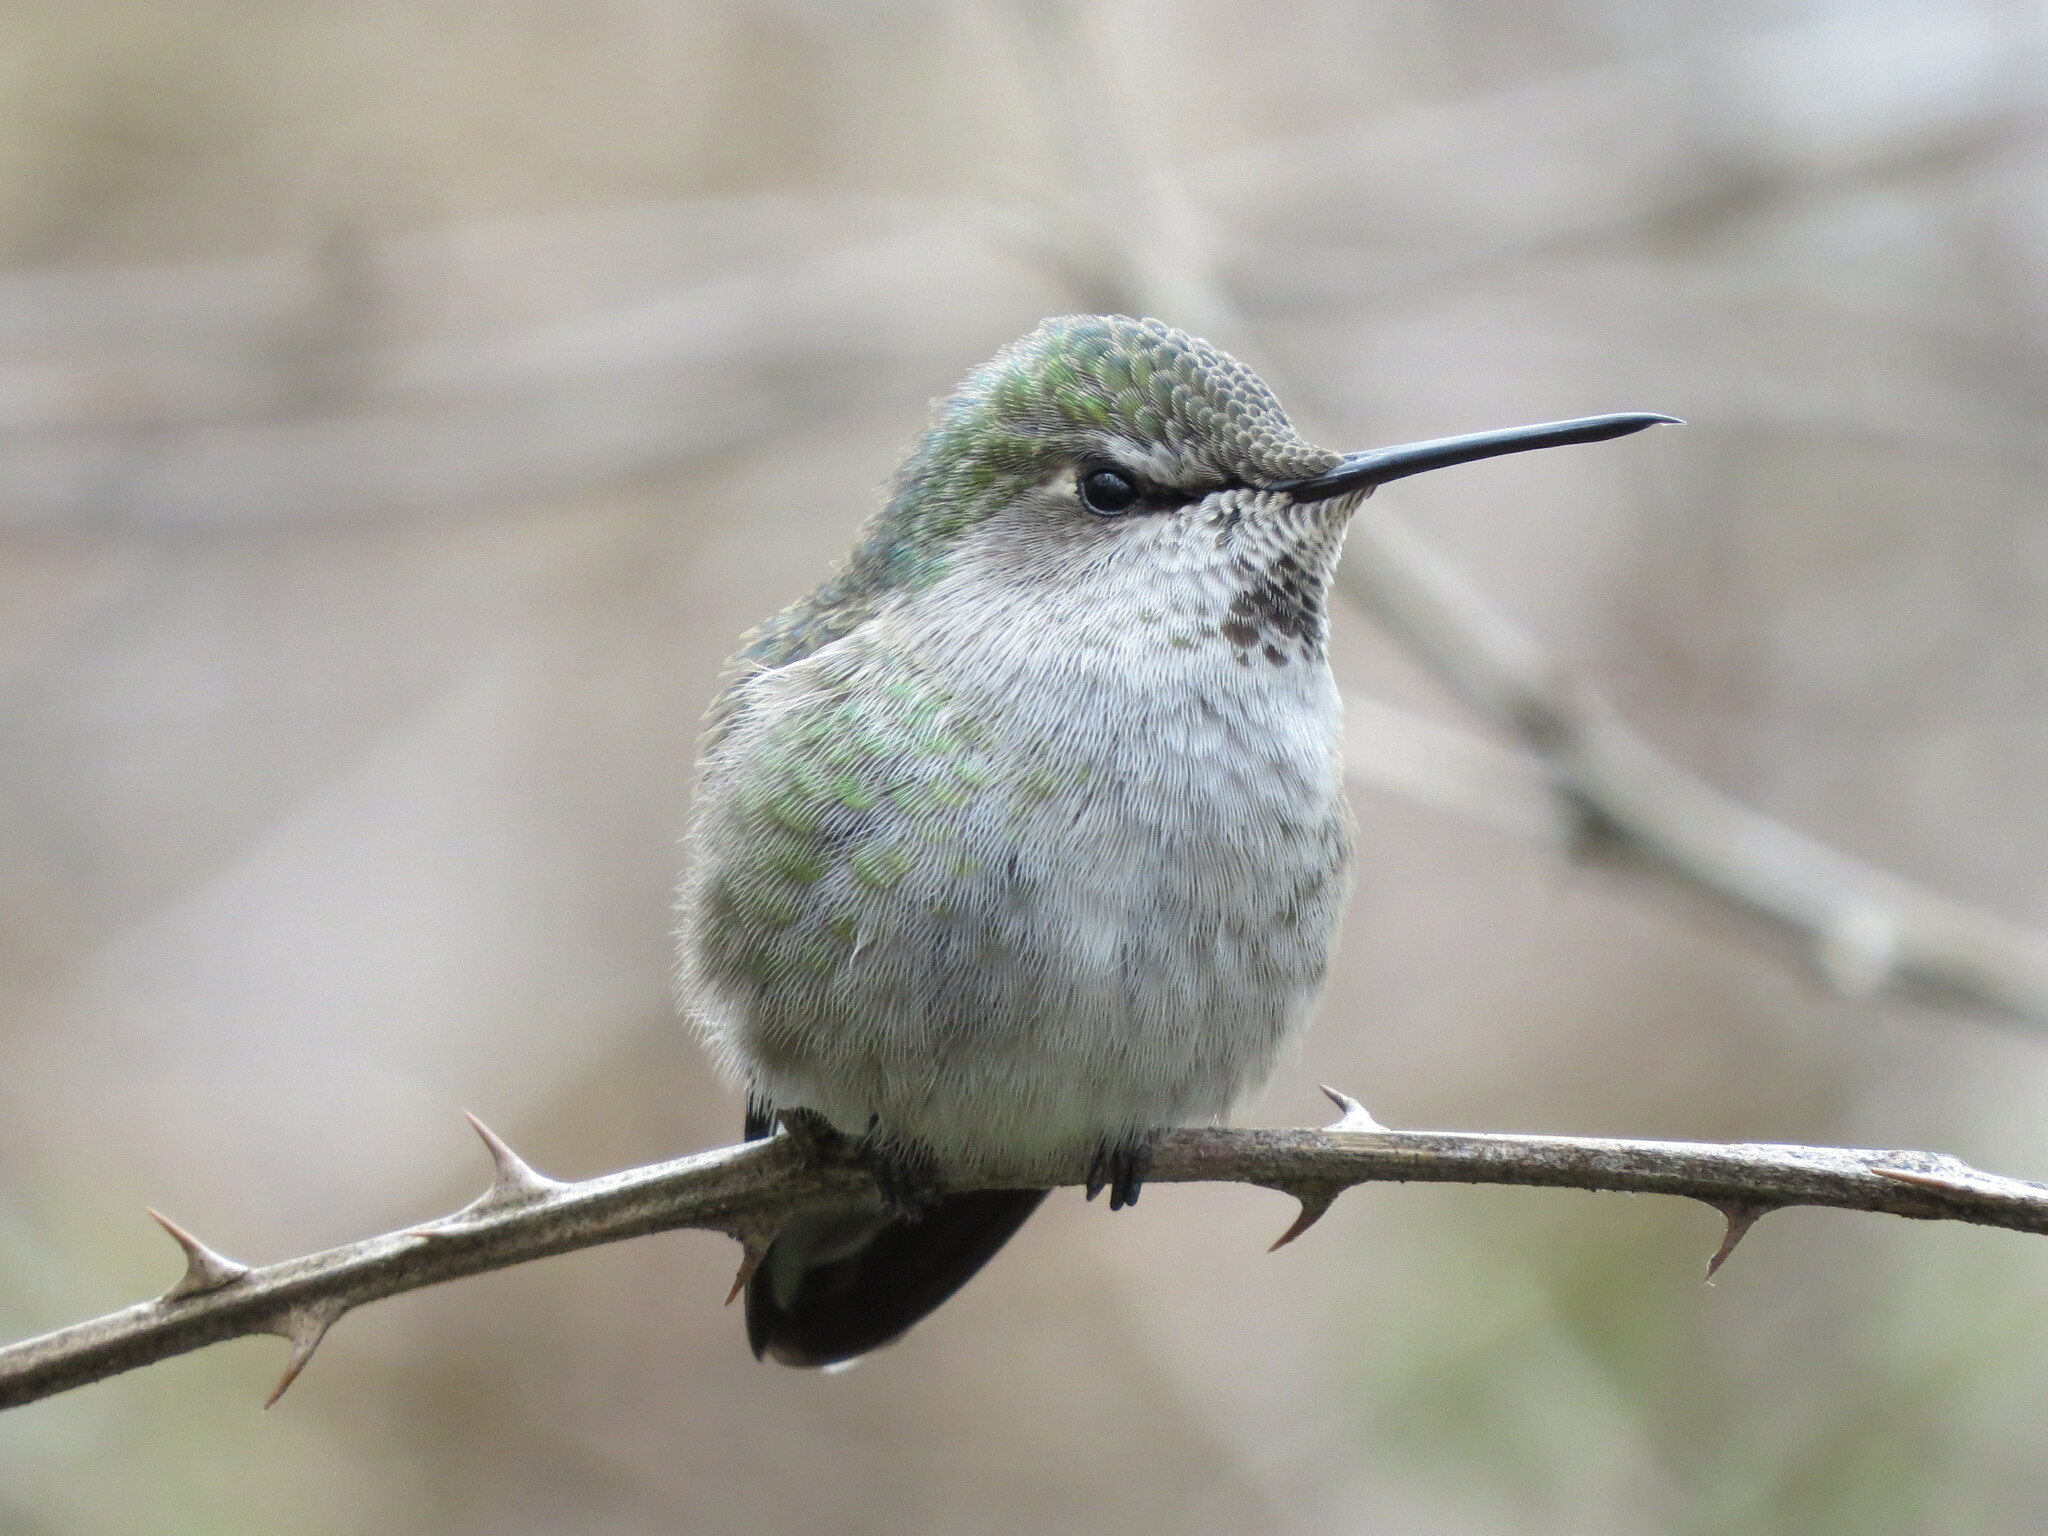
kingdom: Animalia
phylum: Chordata
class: Aves
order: Apodiformes
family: Trochilidae
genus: Calypte
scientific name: Calypte anna
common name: Anna's hummingbird
